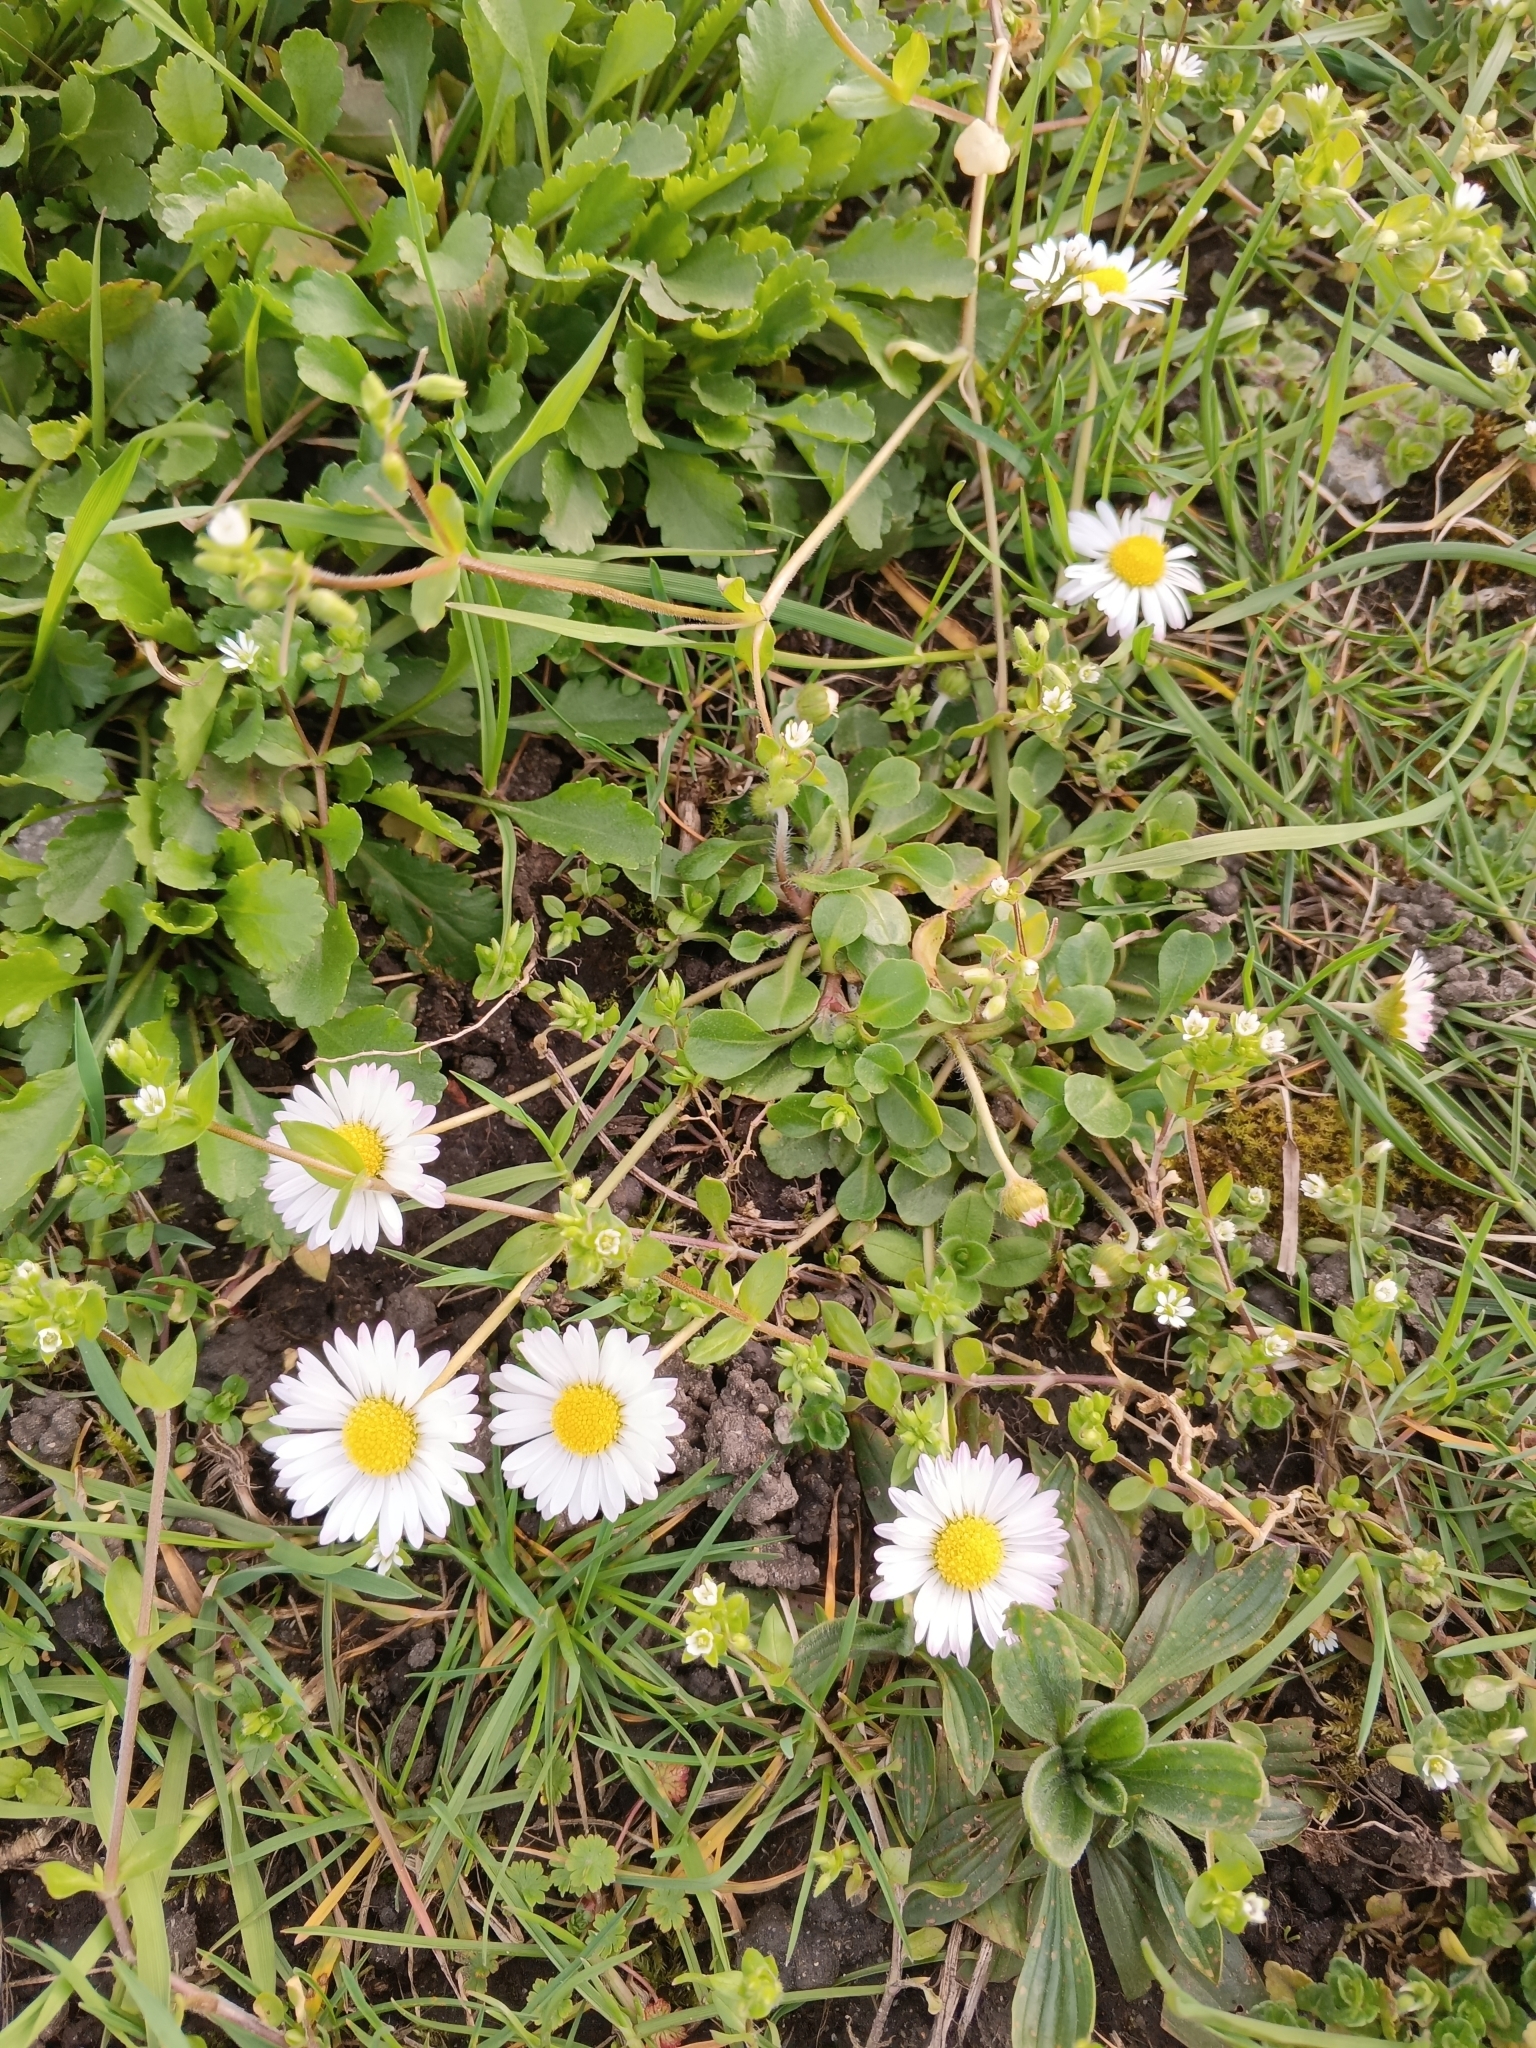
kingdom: Plantae
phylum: Tracheophyta
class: Magnoliopsida
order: Asterales
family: Asteraceae
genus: Bellis
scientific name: Bellis perennis
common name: Lawndaisy
